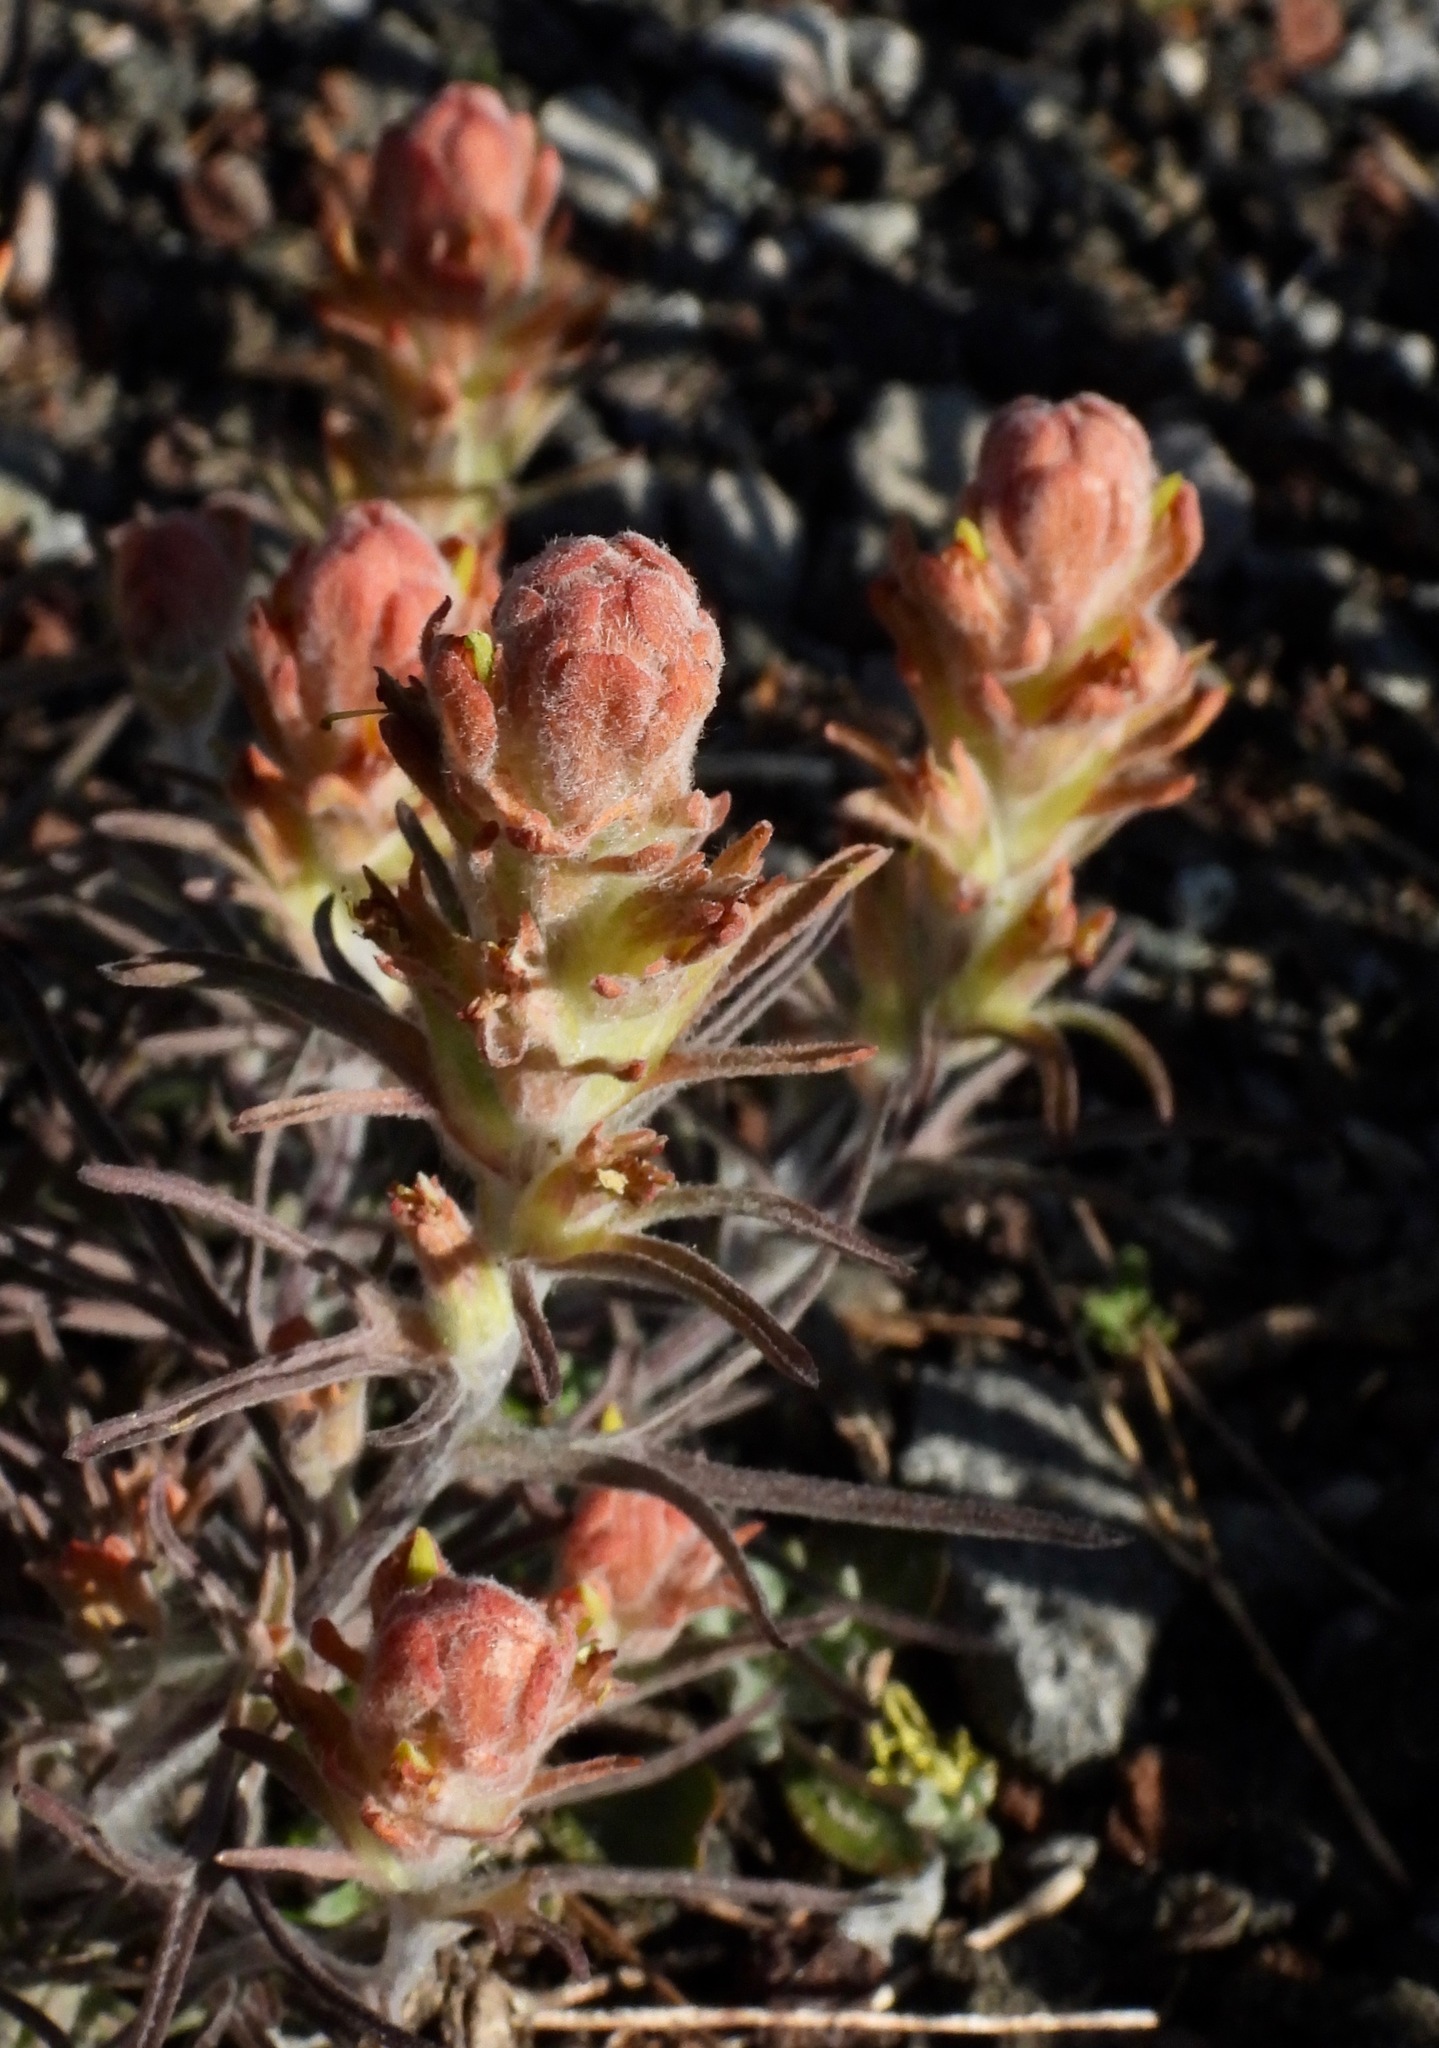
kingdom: Plantae
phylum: Tracheophyta
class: Magnoliopsida
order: Lamiales
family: Orobanchaceae
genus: Castilleja
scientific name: Castilleja arachnoidea
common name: Cobwebby indian paintbrush
